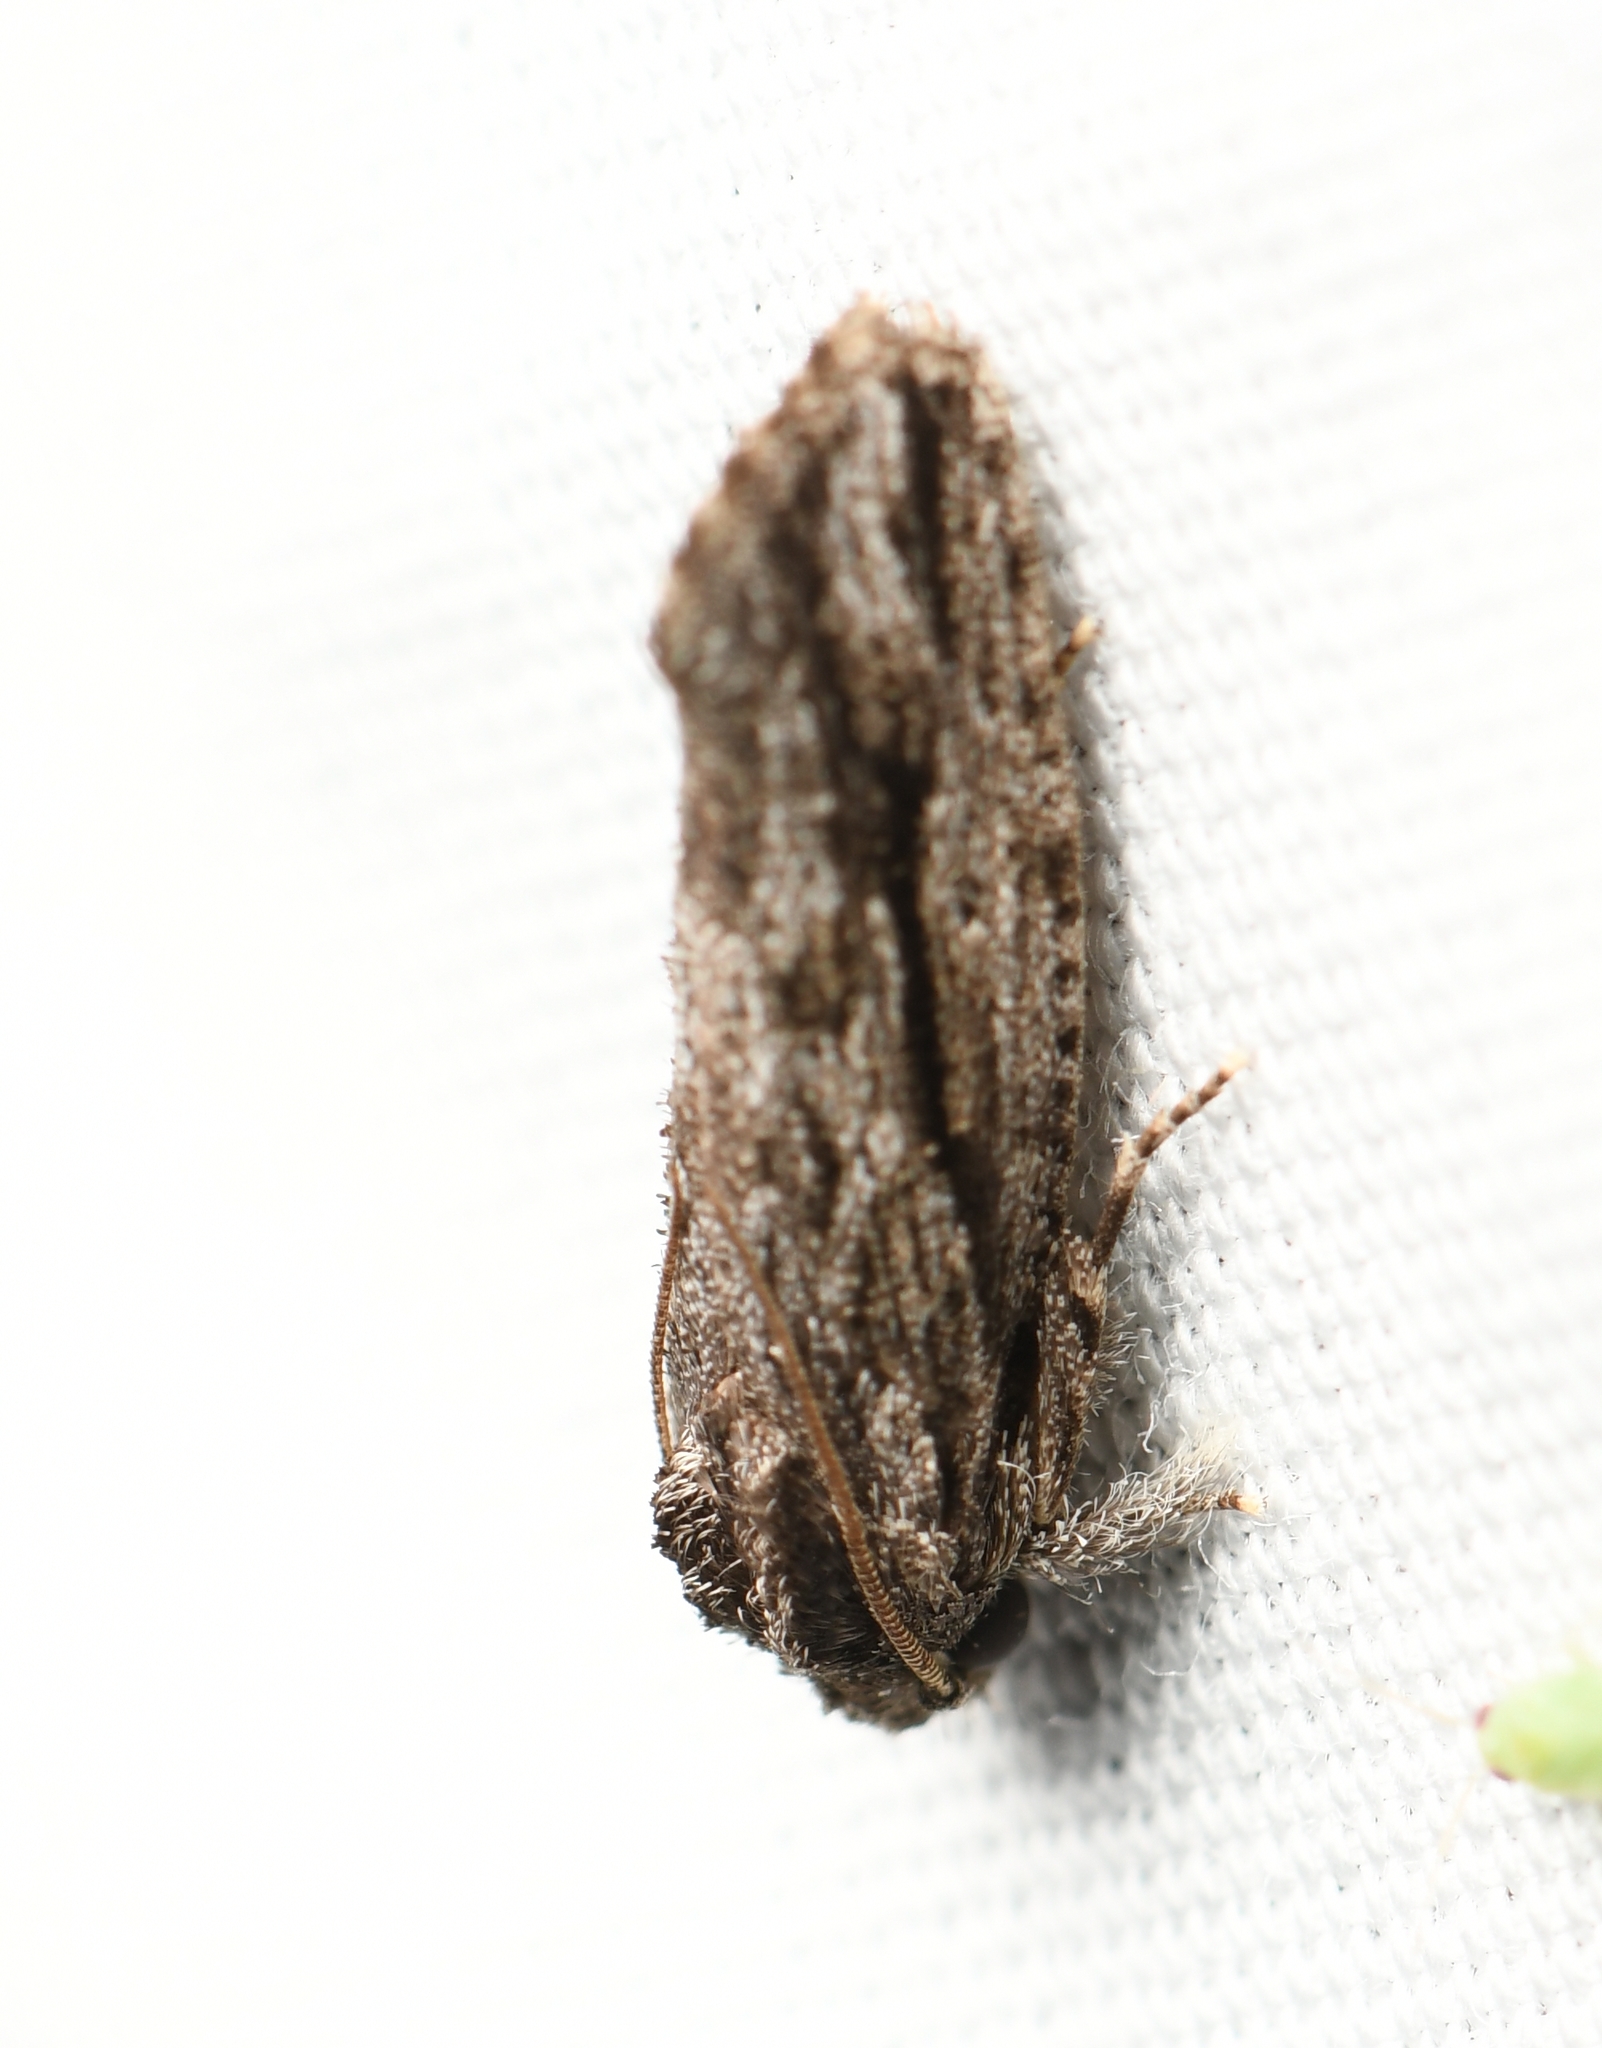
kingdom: Animalia
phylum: Arthropoda
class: Insecta
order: Lepidoptera
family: Tineidae
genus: Acrolophus
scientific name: Acrolophus furcatus
